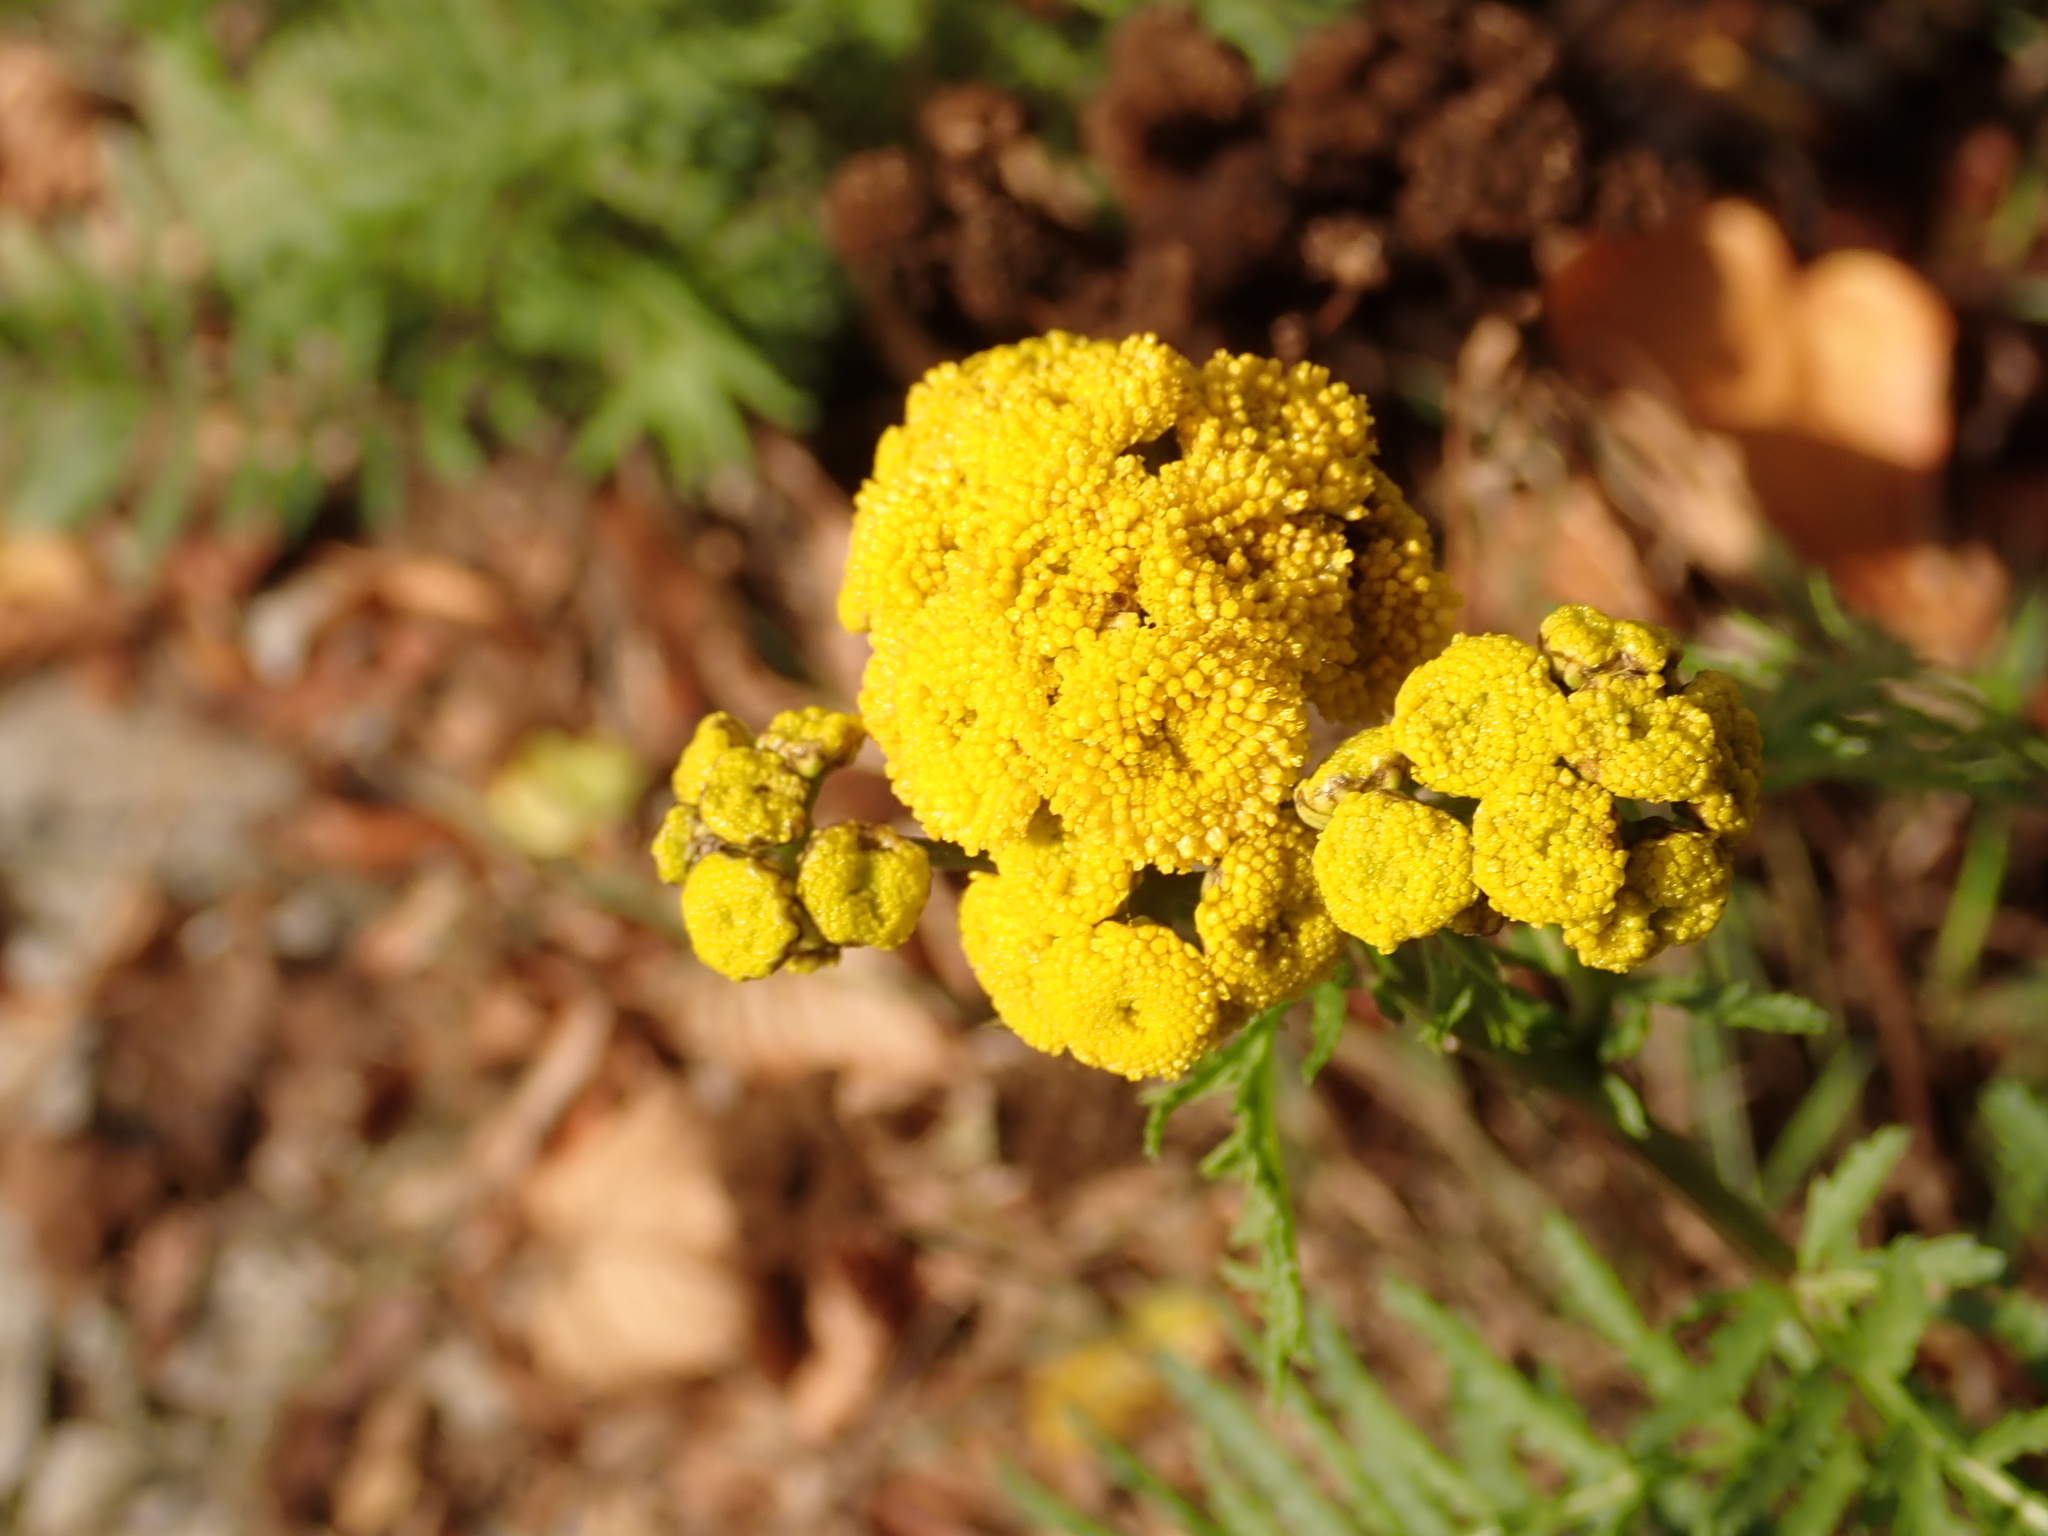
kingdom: Plantae
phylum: Tracheophyta
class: Magnoliopsida
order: Asterales
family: Asteraceae
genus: Tanacetum
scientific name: Tanacetum vulgare
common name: Common tansy
